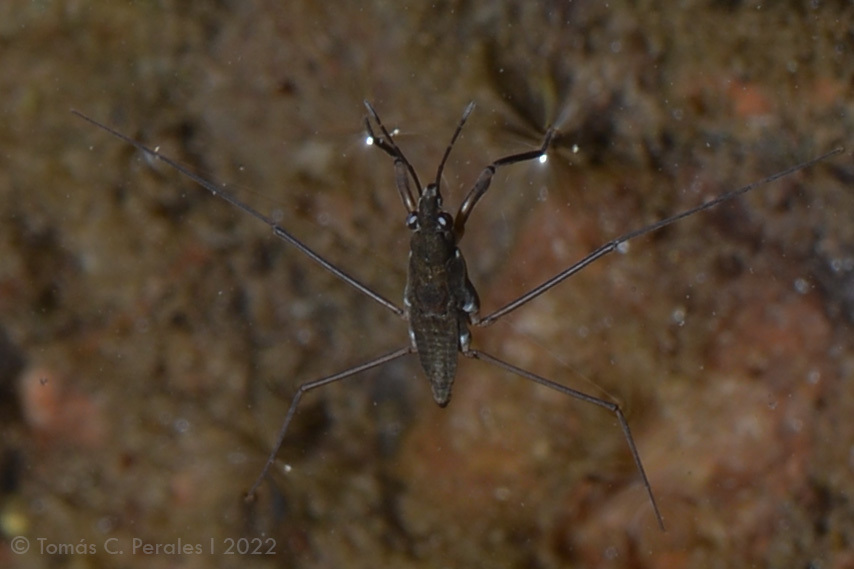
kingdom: Animalia
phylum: Arthropoda
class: Insecta
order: Hemiptera
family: Gerridae
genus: Eurygerris
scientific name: Eurygerris fuscinervis
